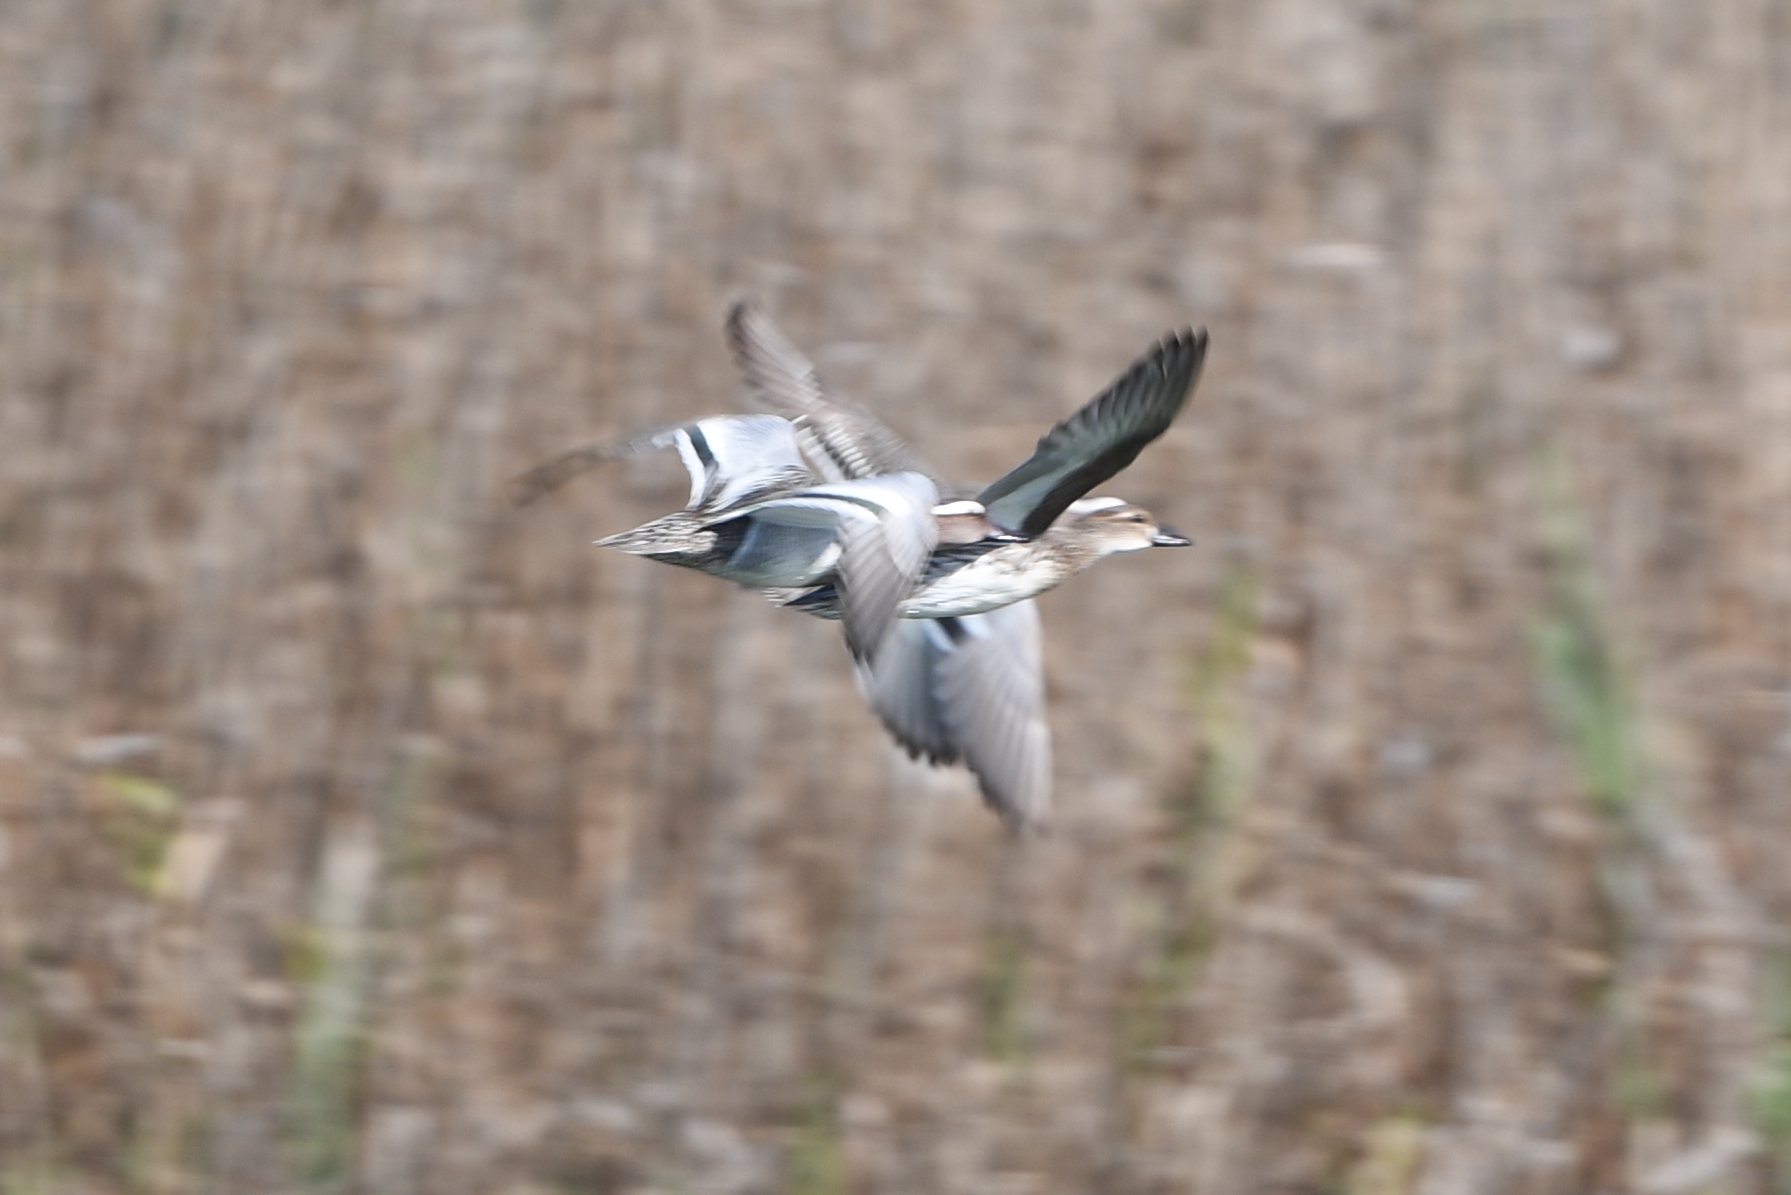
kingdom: Animalia
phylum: Chordata
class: Aves
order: Anseriformes
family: Anatidae
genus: Spatula
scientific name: Spatula querquedula
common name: Garganey
